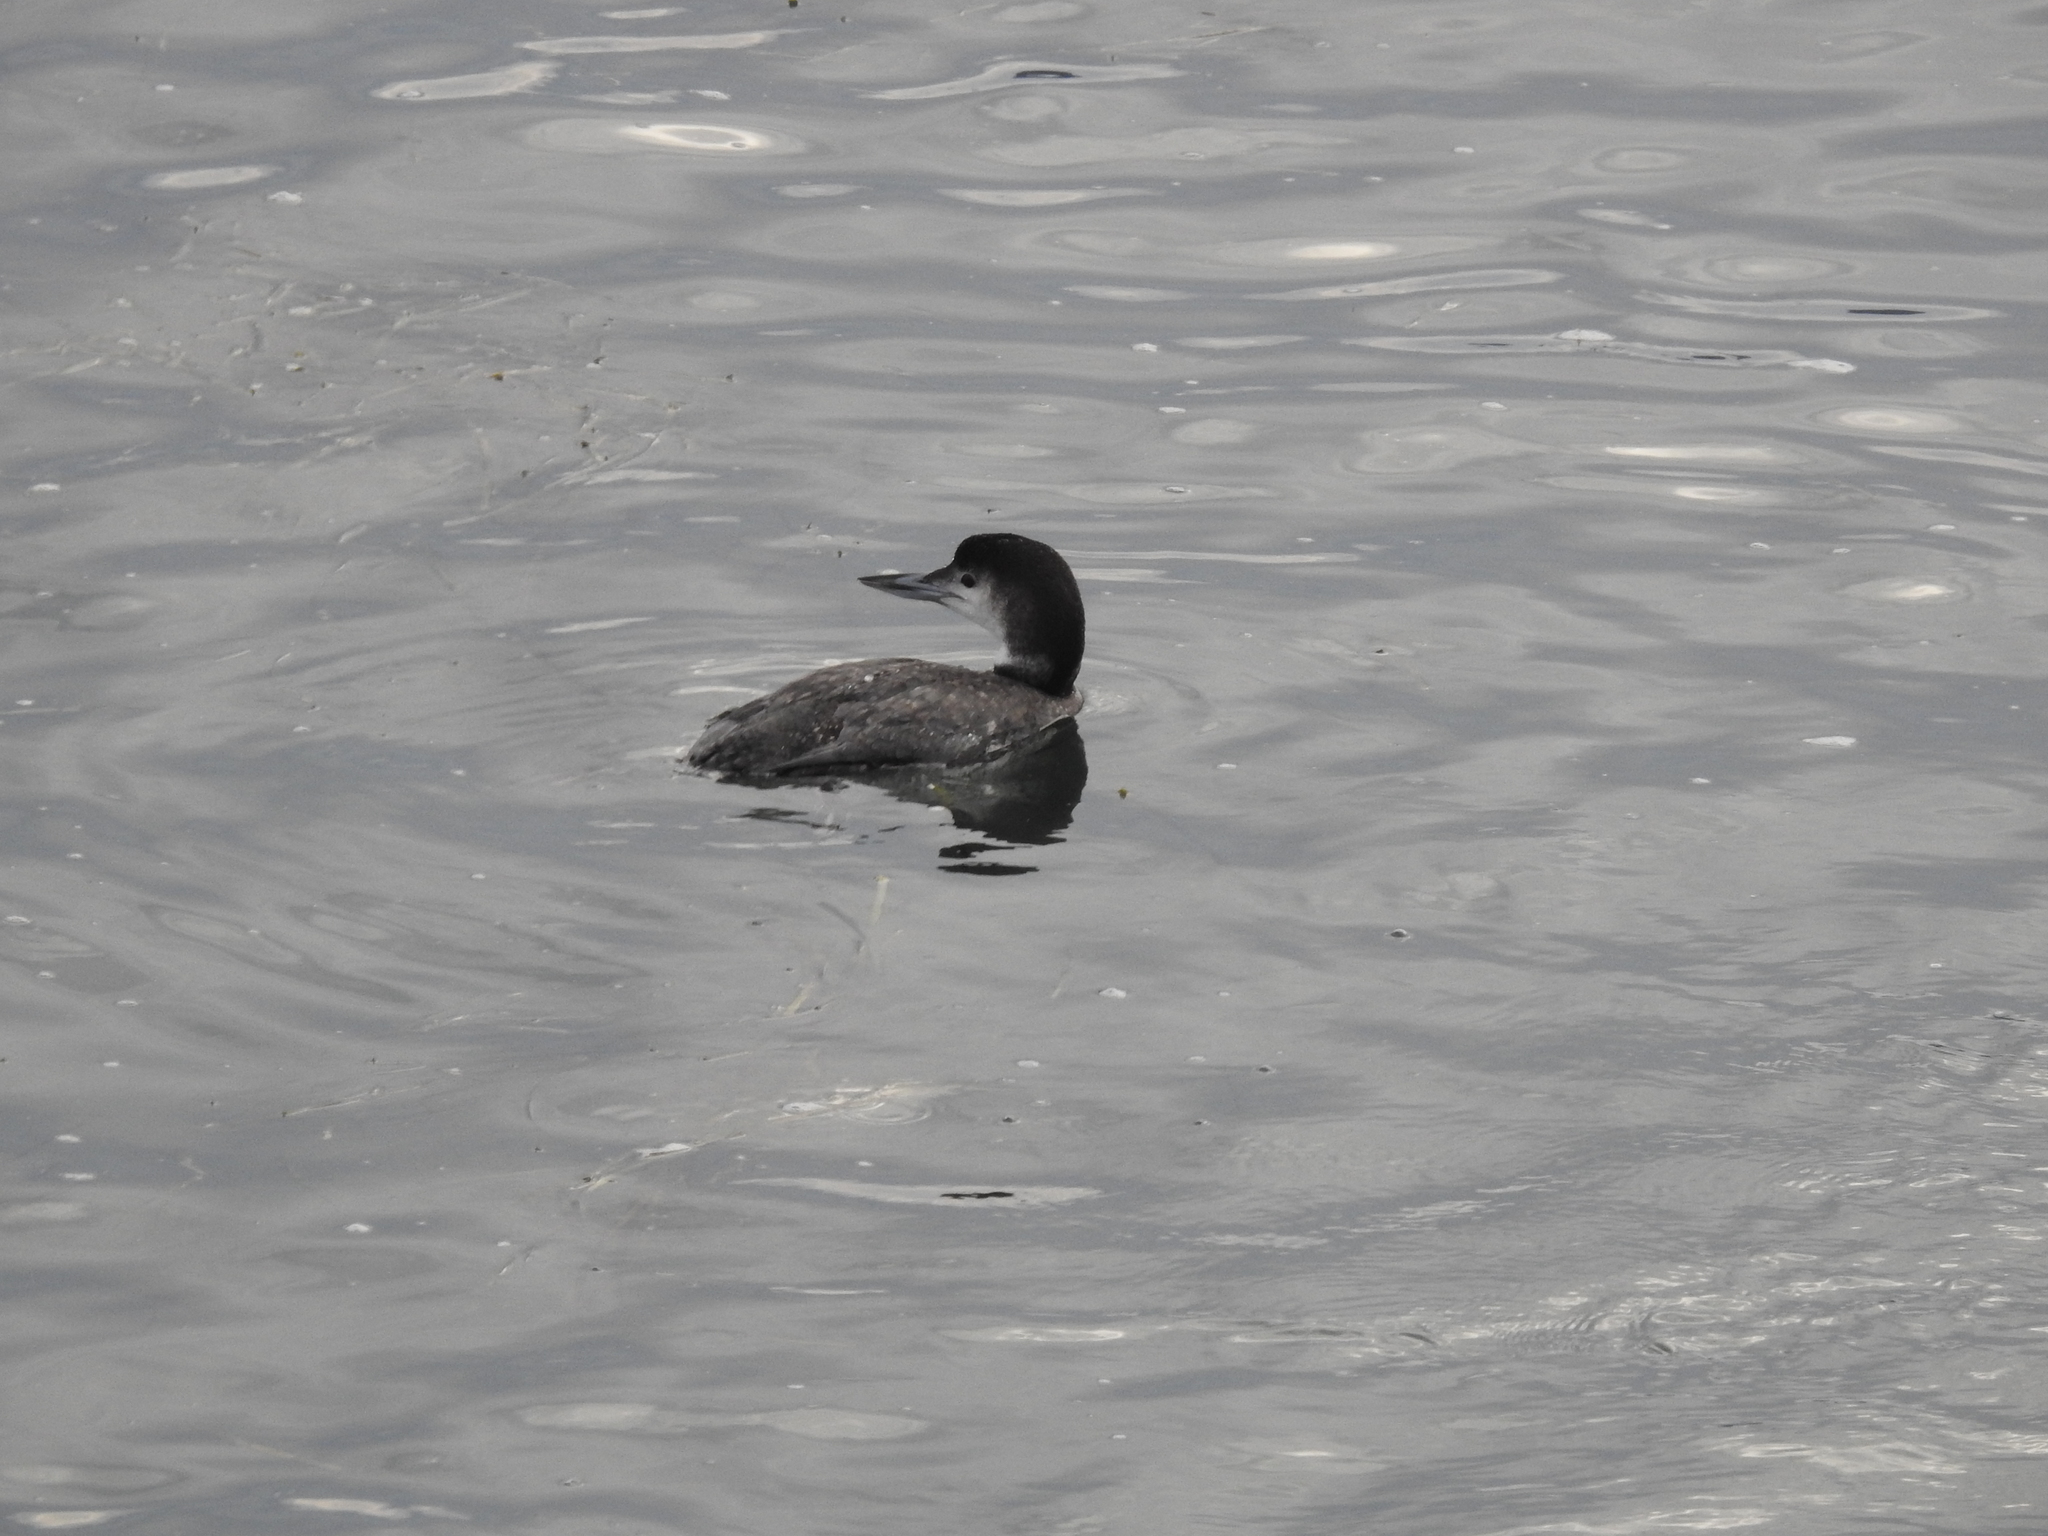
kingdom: Animalia
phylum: Chordata
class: Aves
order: Gaviiformes
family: Gaviidae
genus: Gavia
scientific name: Gavia immer
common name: Common loon
